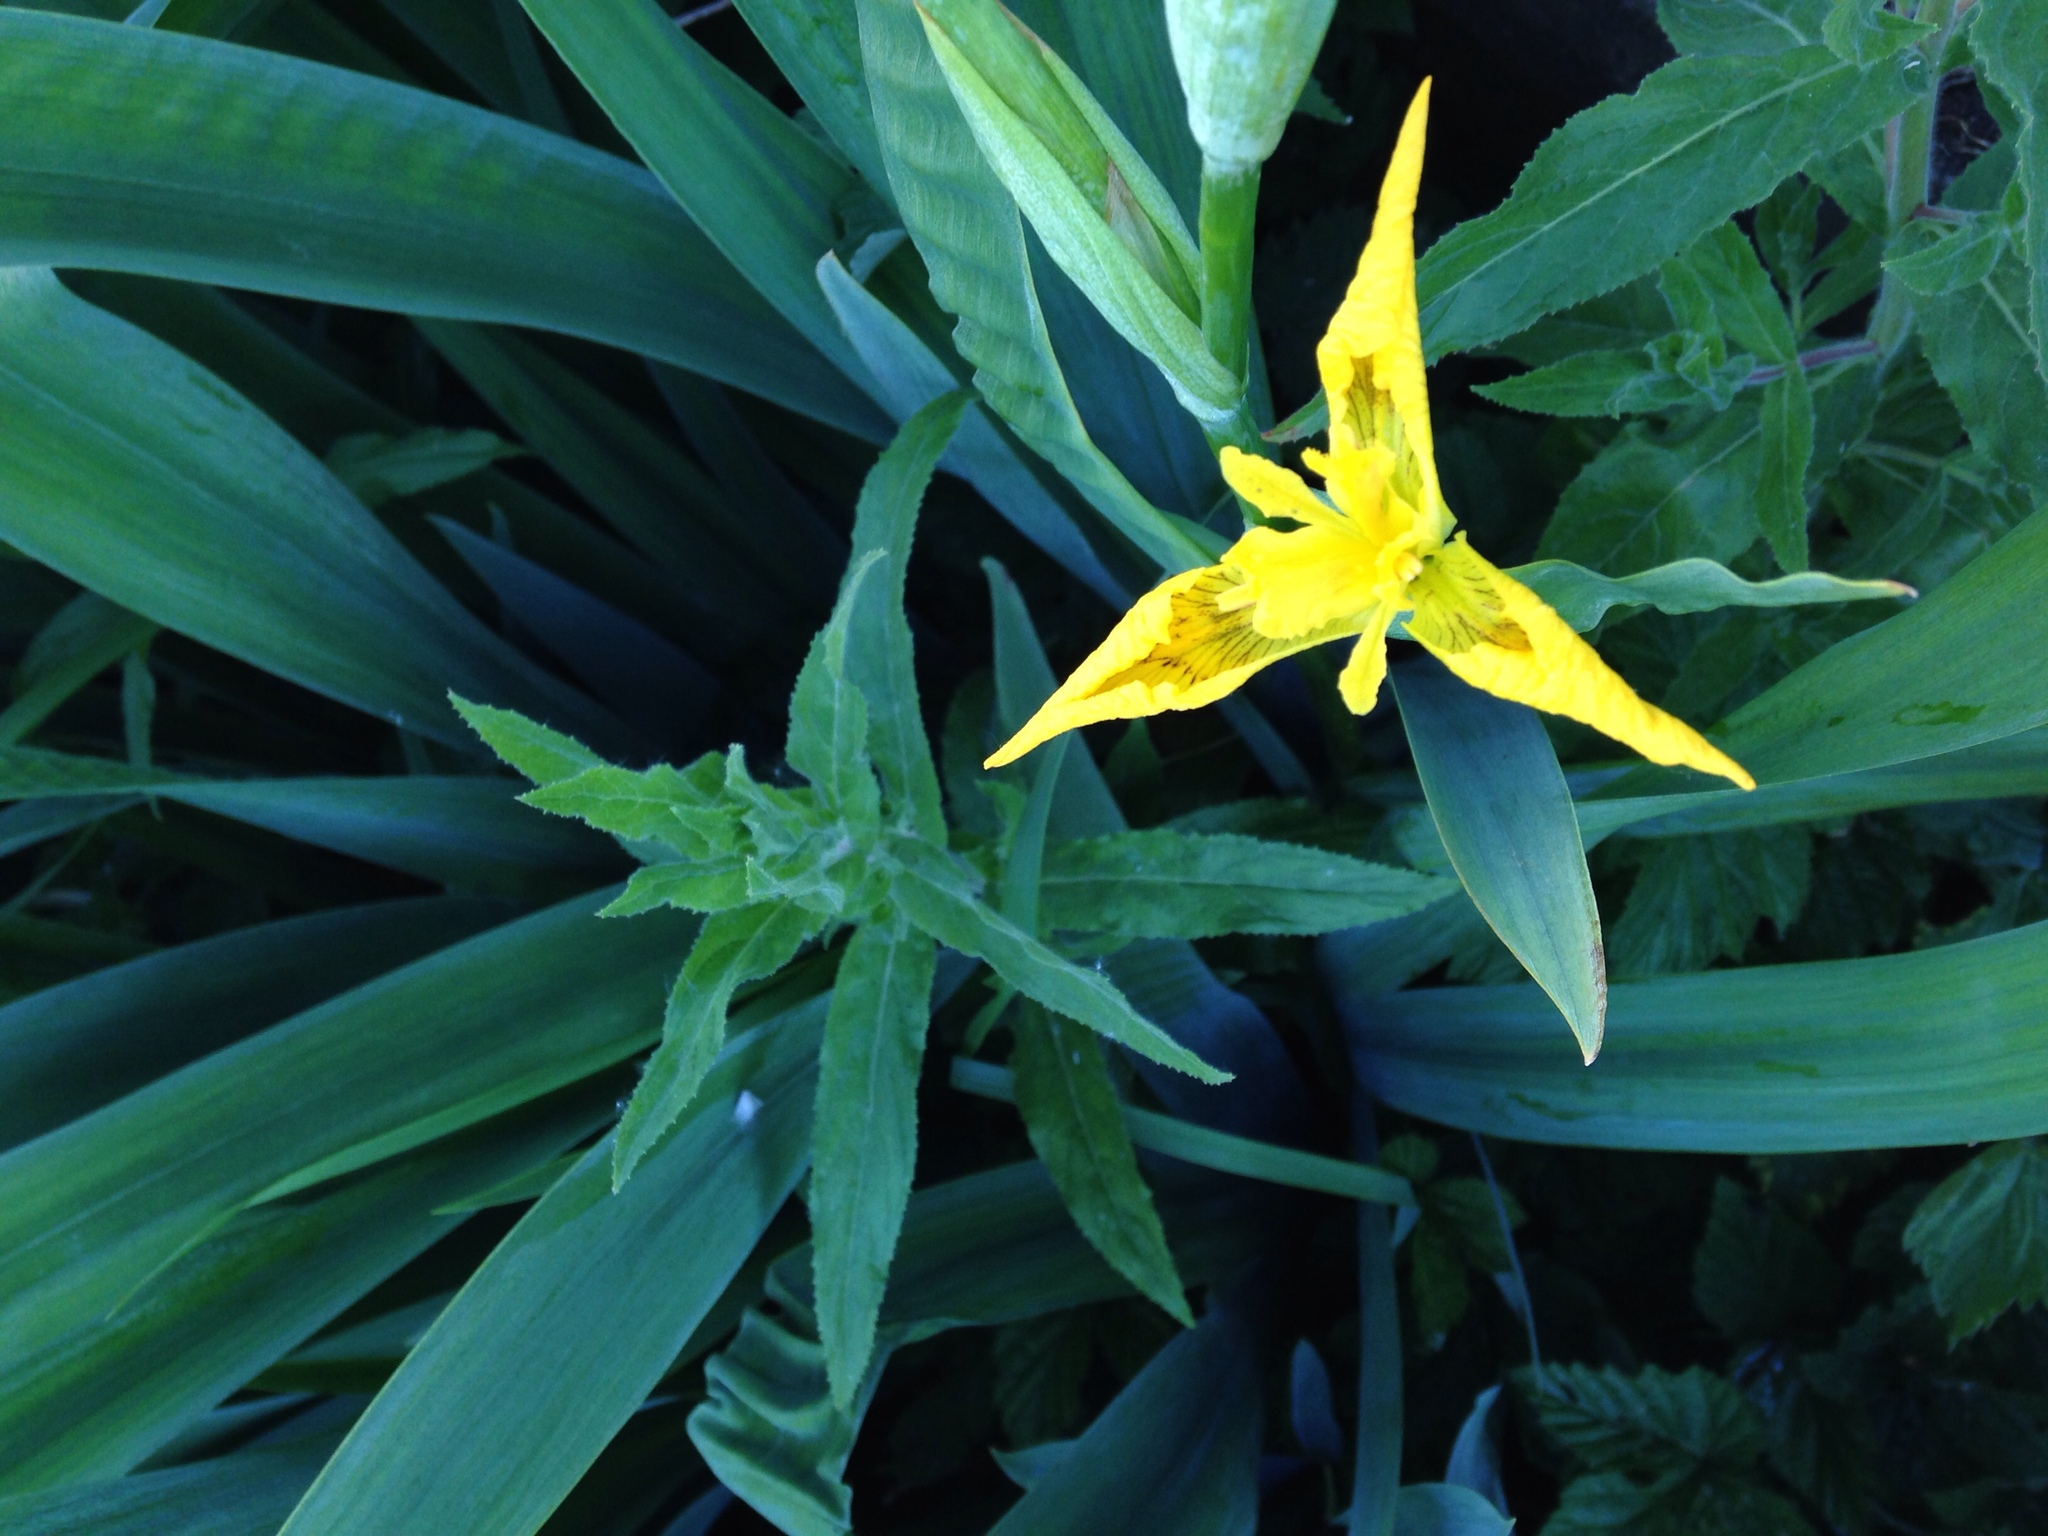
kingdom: Plantae
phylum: Tracheophyta
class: Liliopsida
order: Asparagales
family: Iridaceae
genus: Iris
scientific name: Iris pseudacorus
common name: Yellow flag
